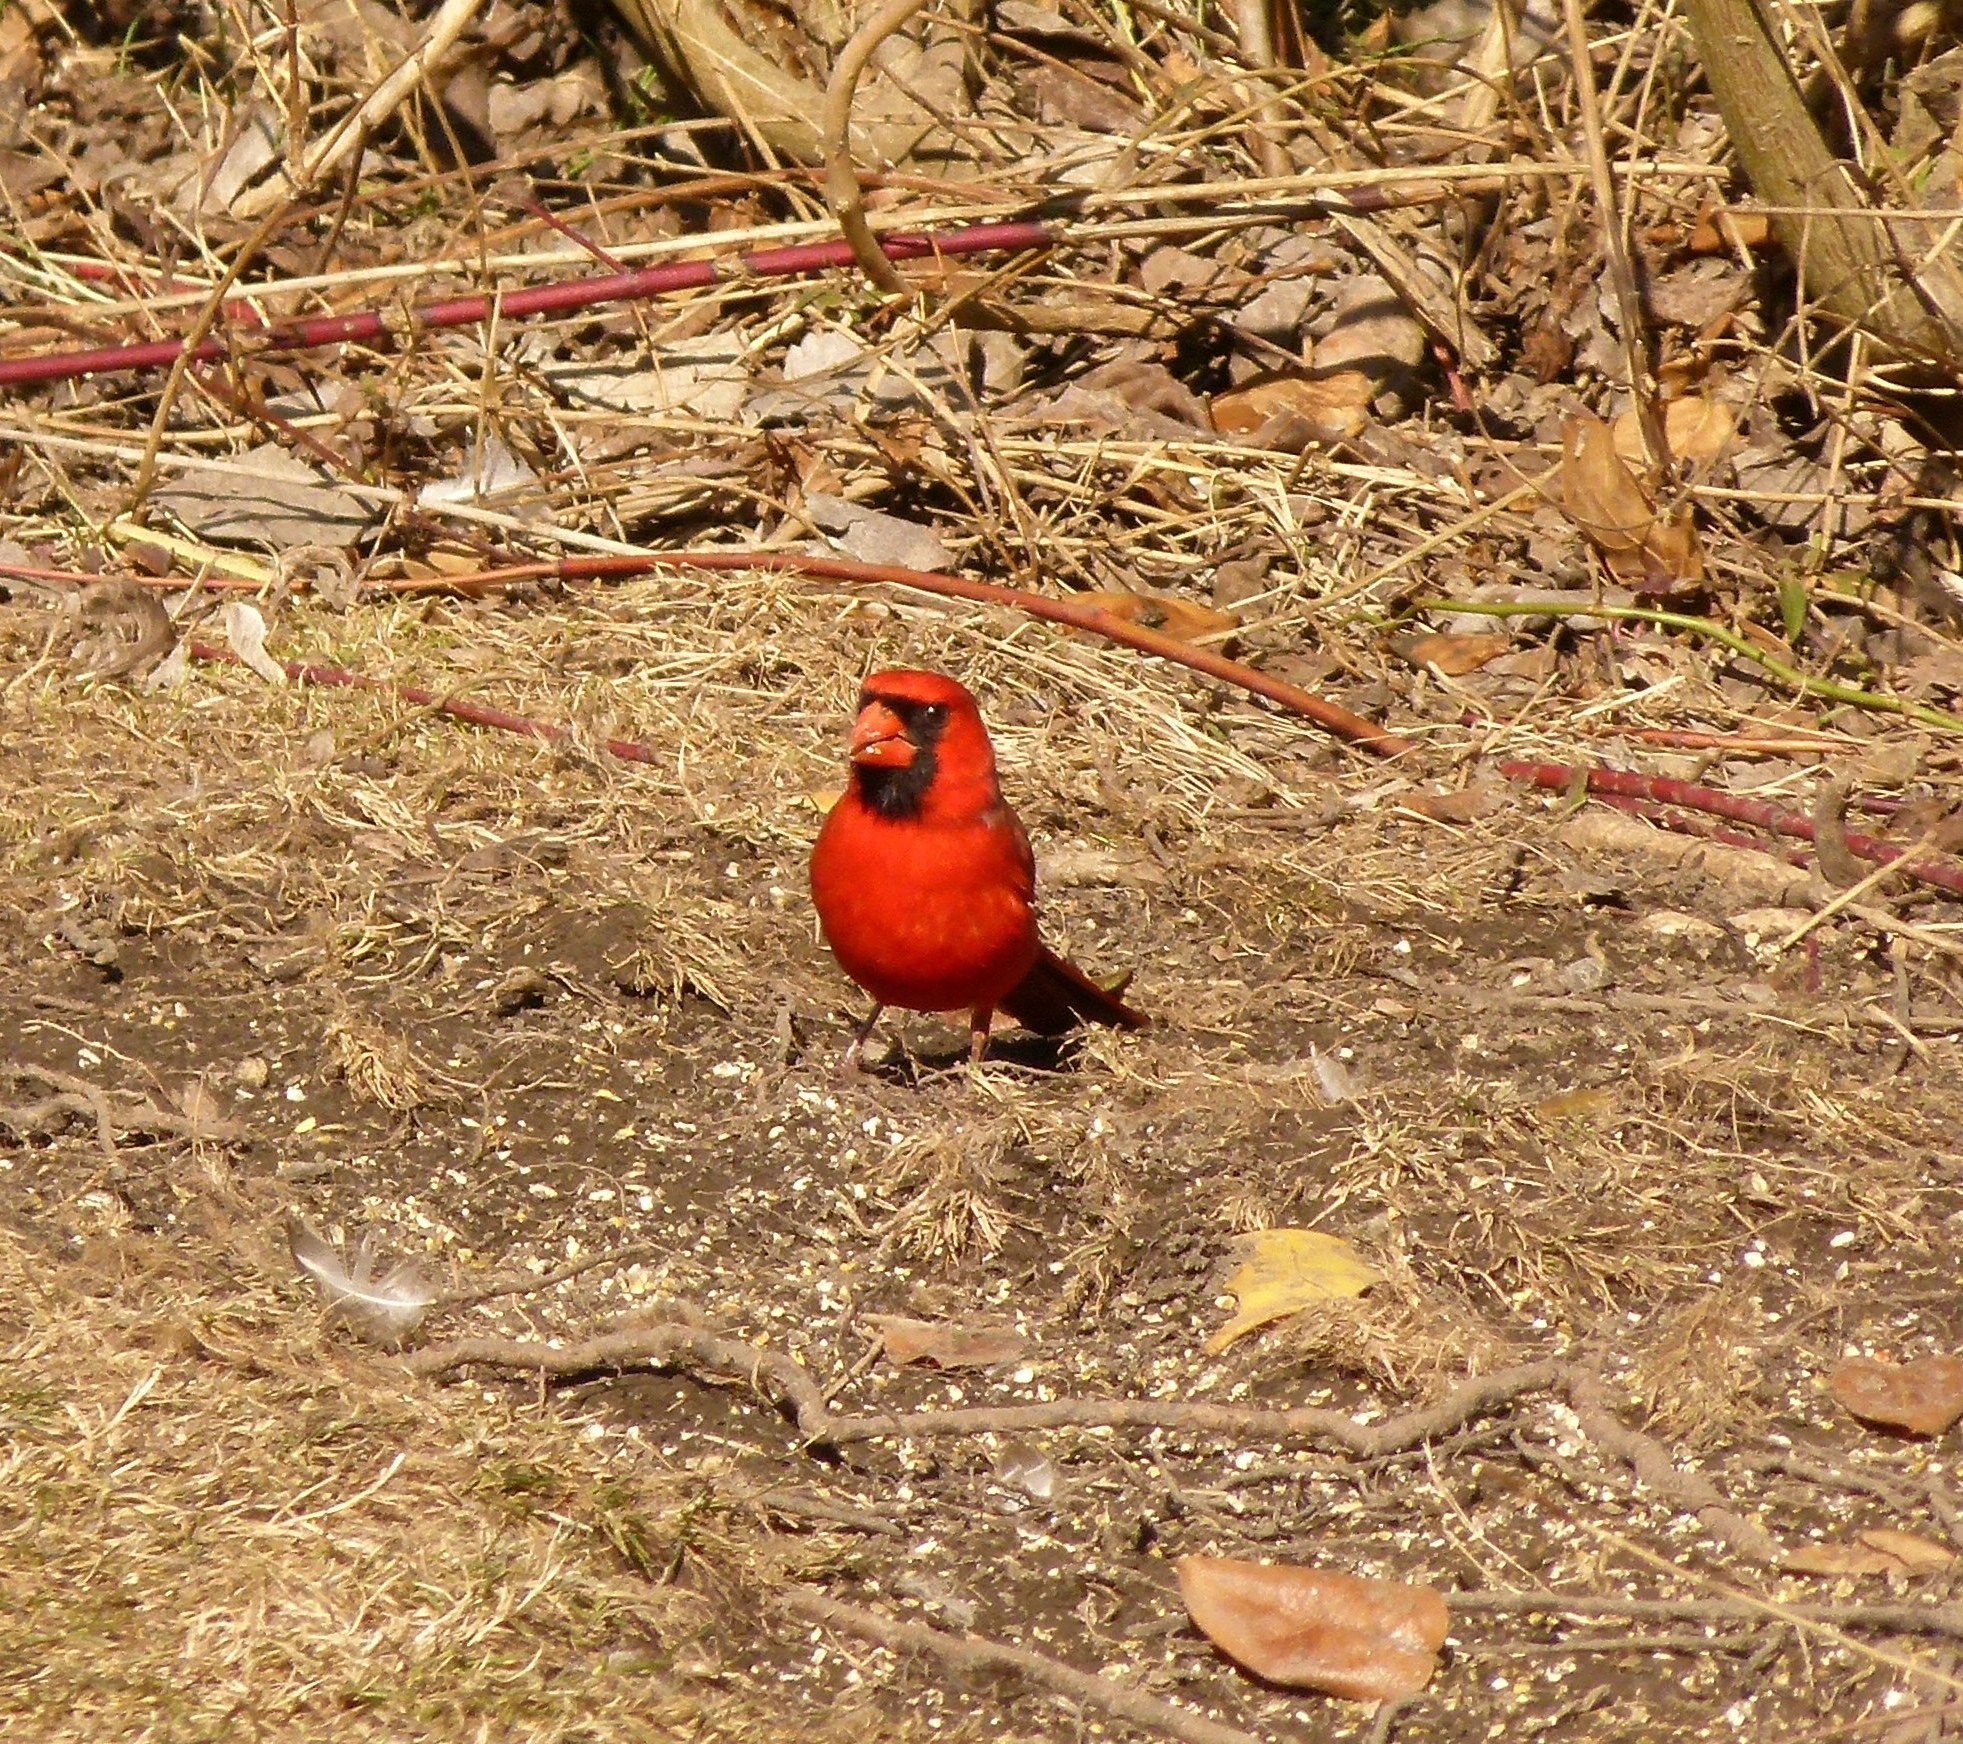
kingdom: Animalia
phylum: Chordata
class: Aves
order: Passeriformes
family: Cardinalidae
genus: Cardinalis
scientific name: Cardinalis cardinalis
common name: Northern cardinal
